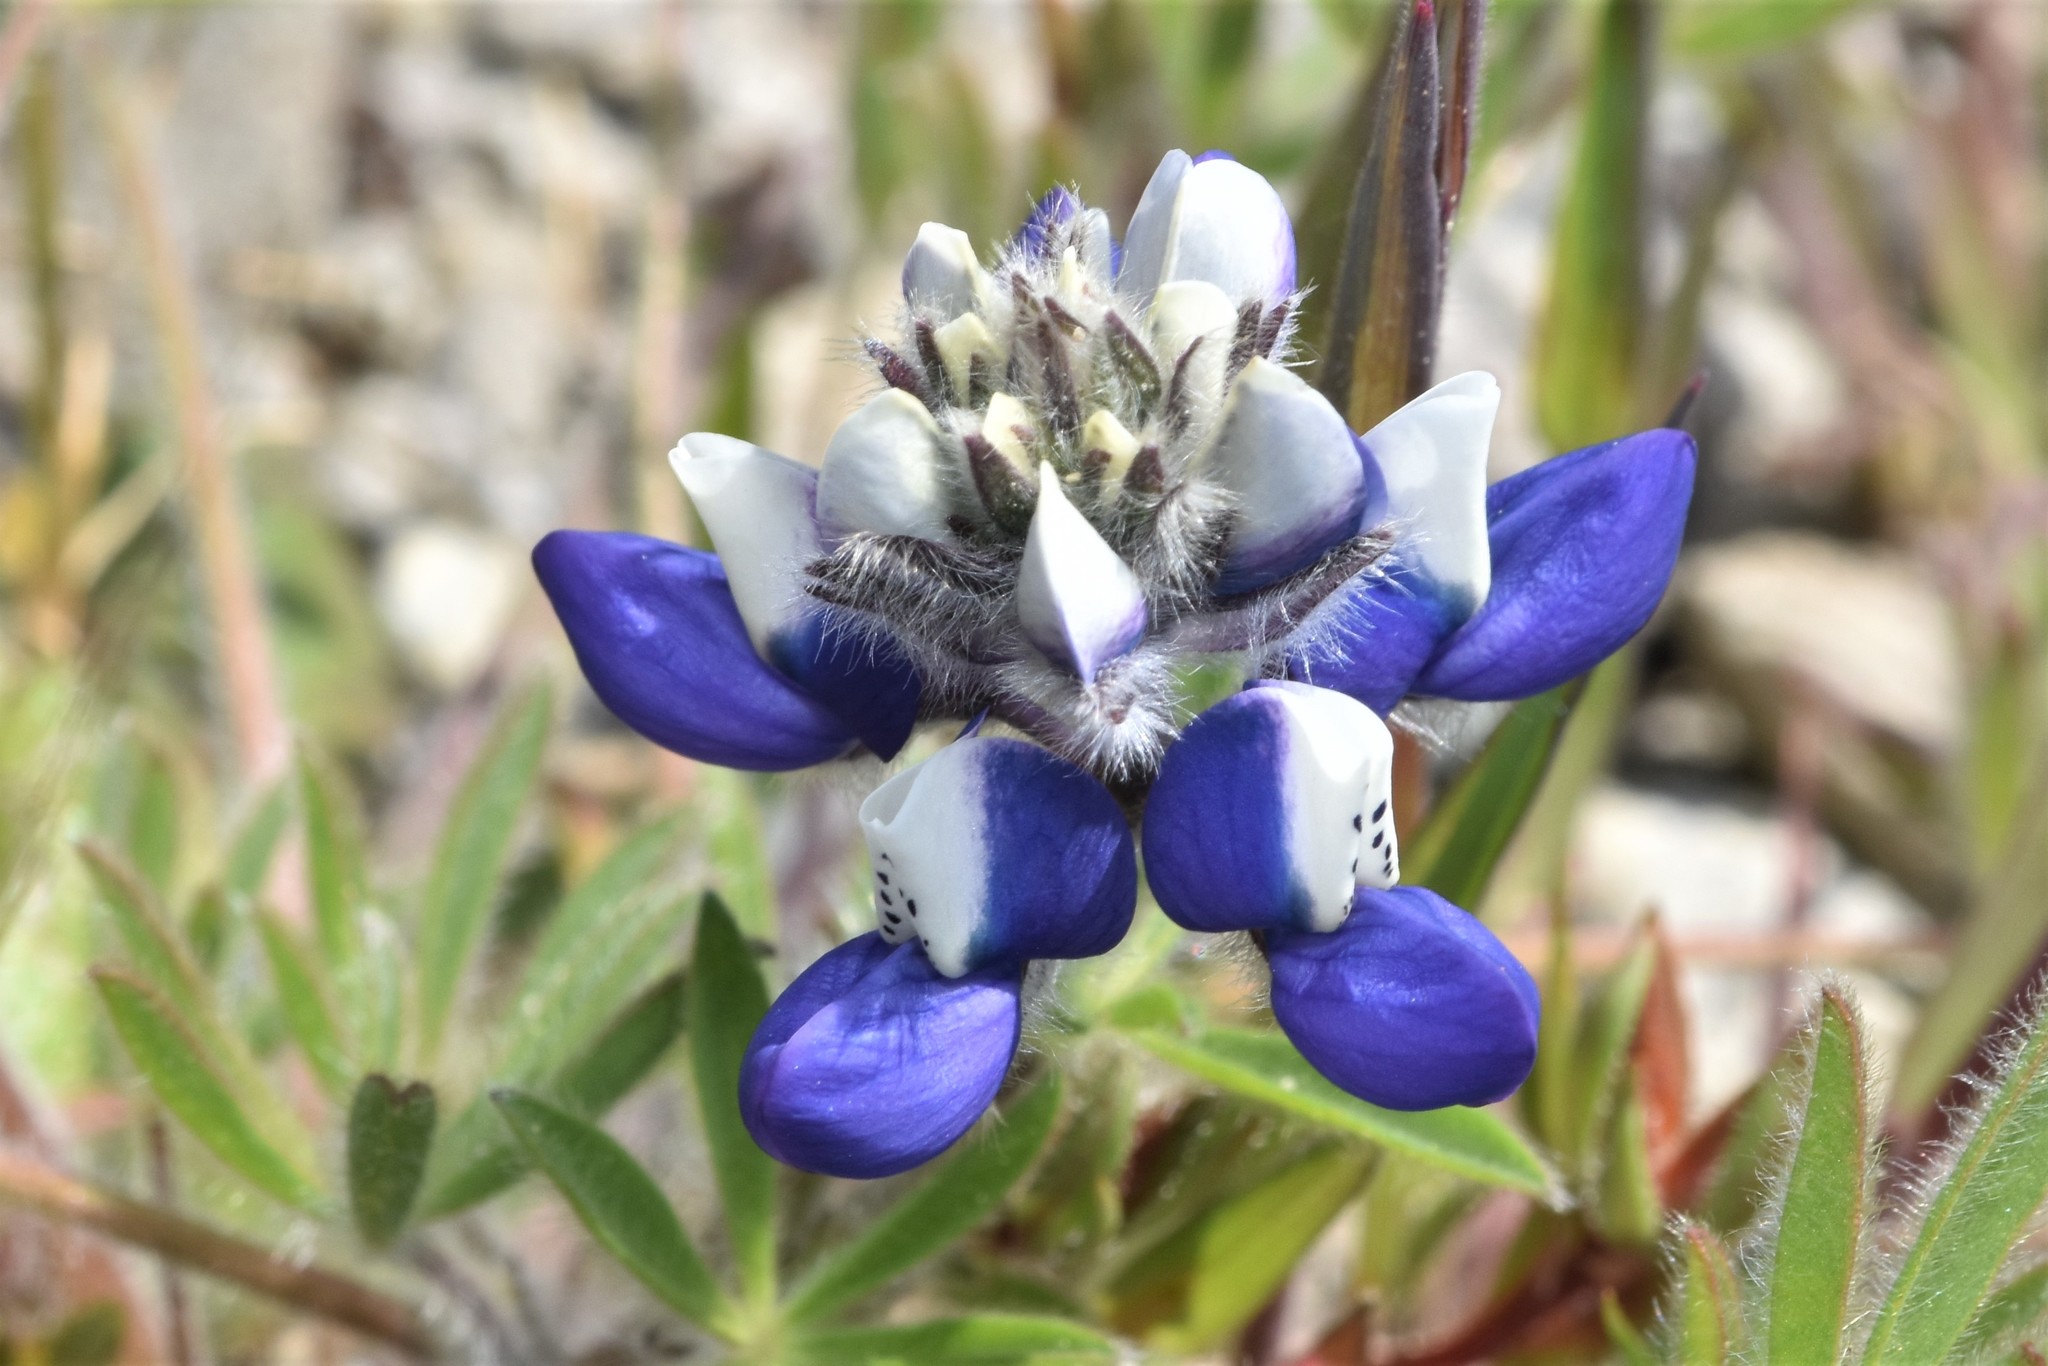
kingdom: Plantae
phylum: Tracheophyta
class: Magnoliopsida
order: Fabales
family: Fabaceae
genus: Lupinus
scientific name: Lupinus bicolor
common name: Miniature lupine
